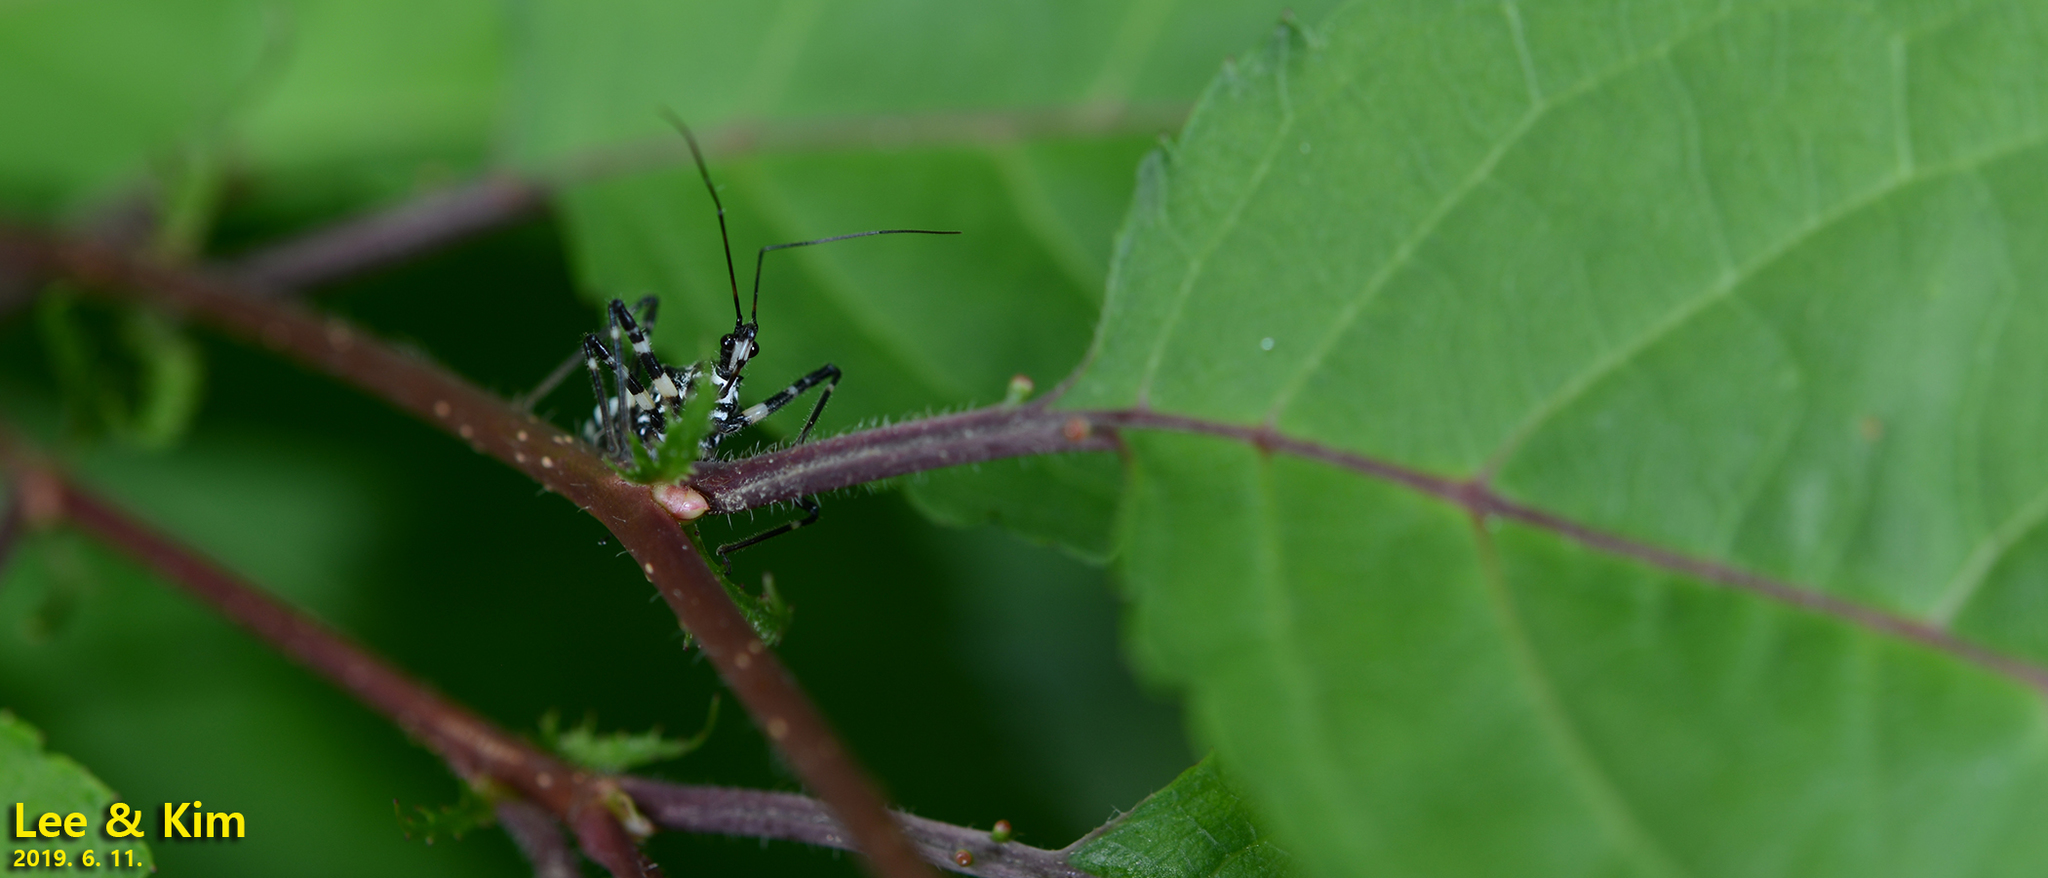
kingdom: Animalia
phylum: Arthropoda
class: Insecta
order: Hemiptera
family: Reduviidae
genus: Sphedanolestes
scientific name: Sphedanolestes impressicollis
